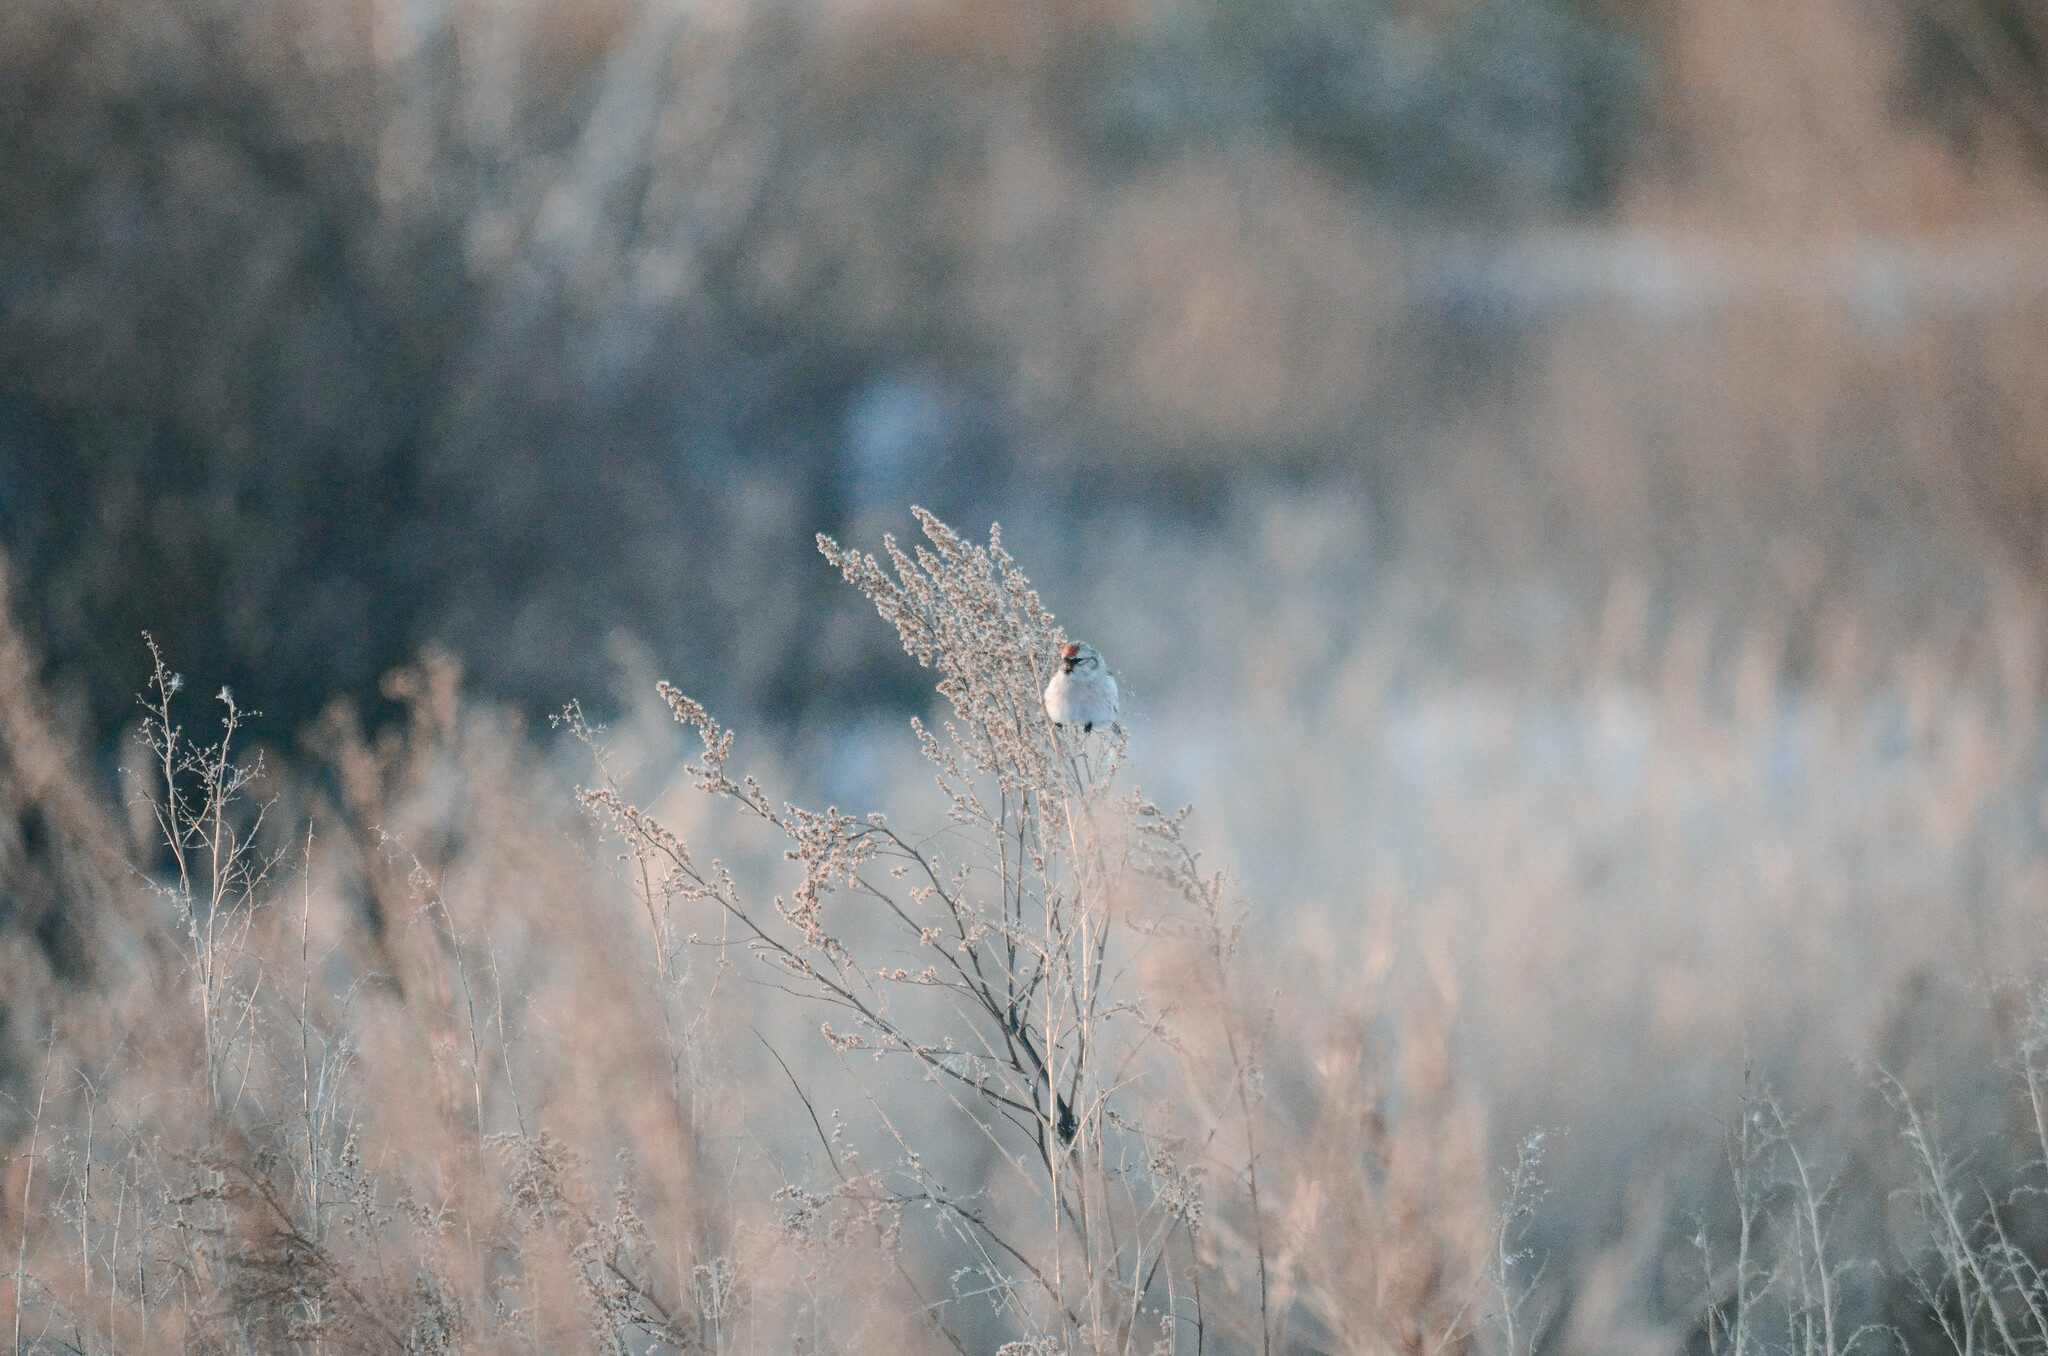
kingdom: Animalia
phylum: Chordata
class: Aves
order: Passeriformes
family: Fringillidae
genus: Acanthis
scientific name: Acanthis hornemanni
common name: Arctic redpoll
